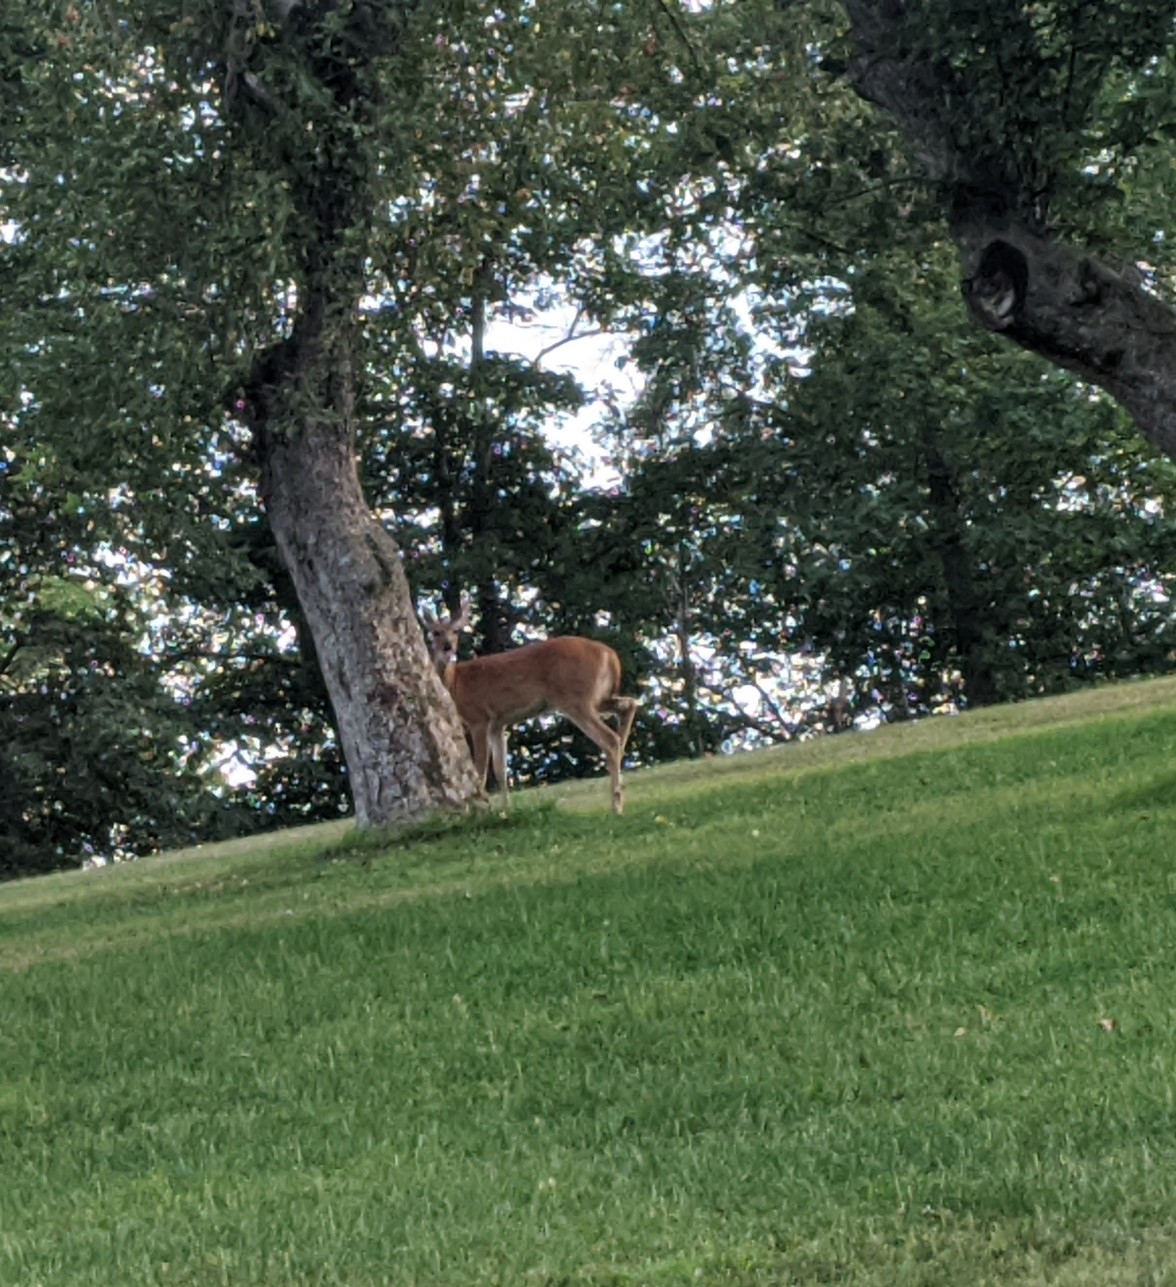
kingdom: Animalia
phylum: Chordata
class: Mammalia
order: Artiodactyla
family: Cervidae
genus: Odocoileus
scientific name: Odocoileus virginianus
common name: White-tailed deer
